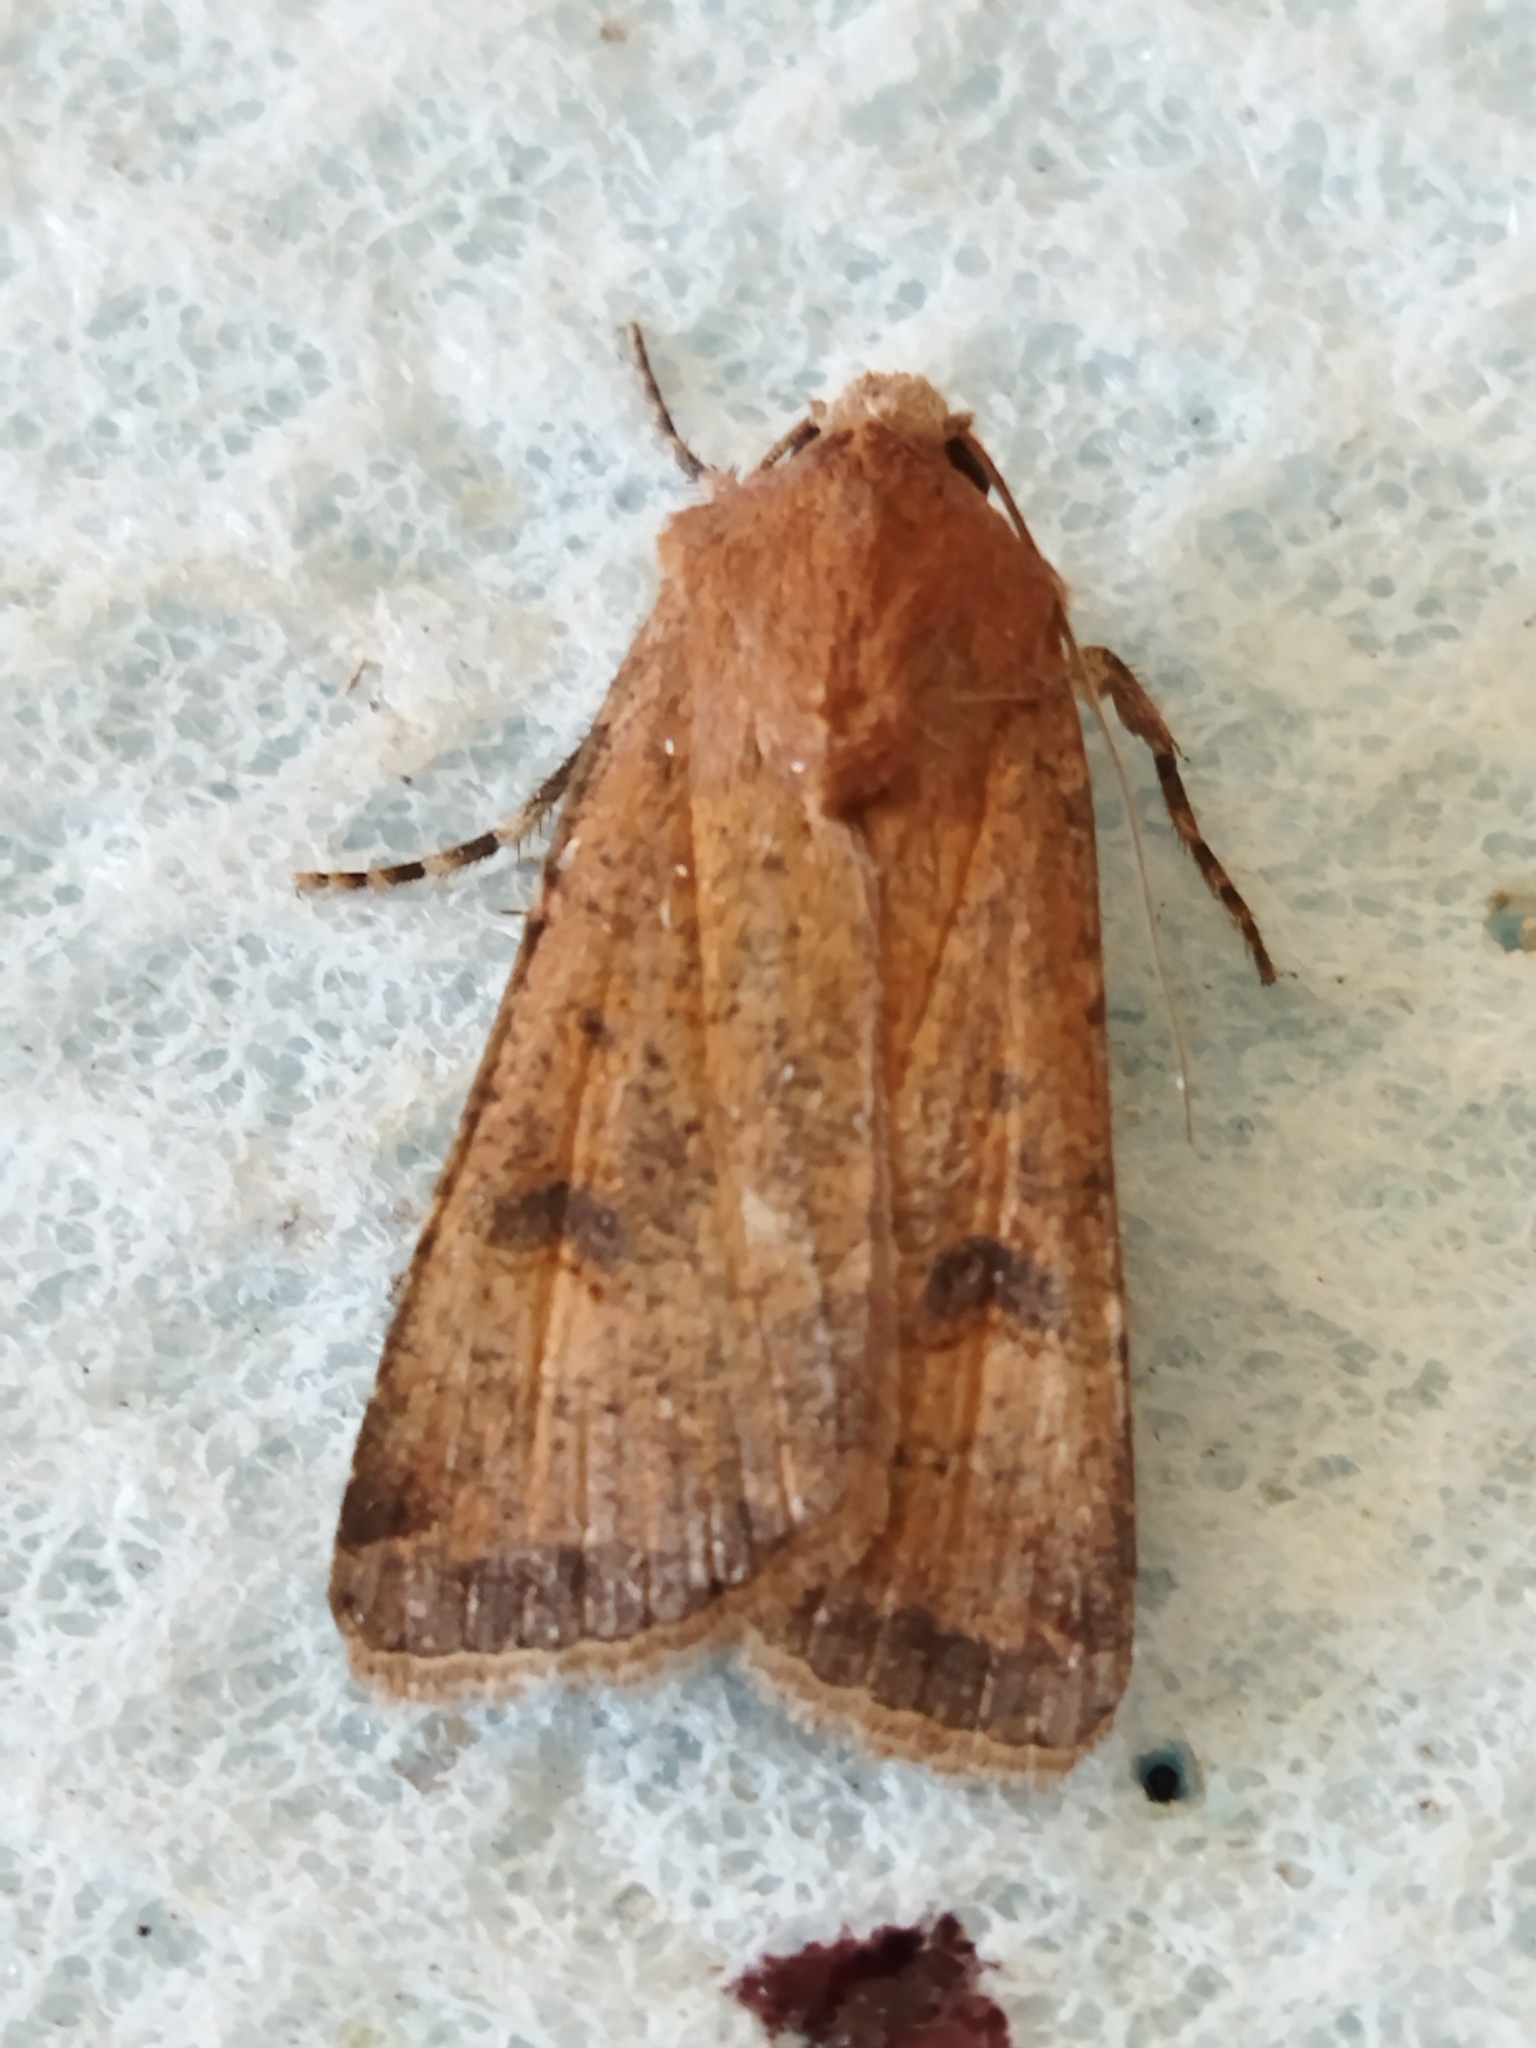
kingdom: Animalia
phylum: Arthropoda
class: Insecta
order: Lepidoptera
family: Noctuidae
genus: Agrotis
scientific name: Agrotis trux
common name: Crescent dart
